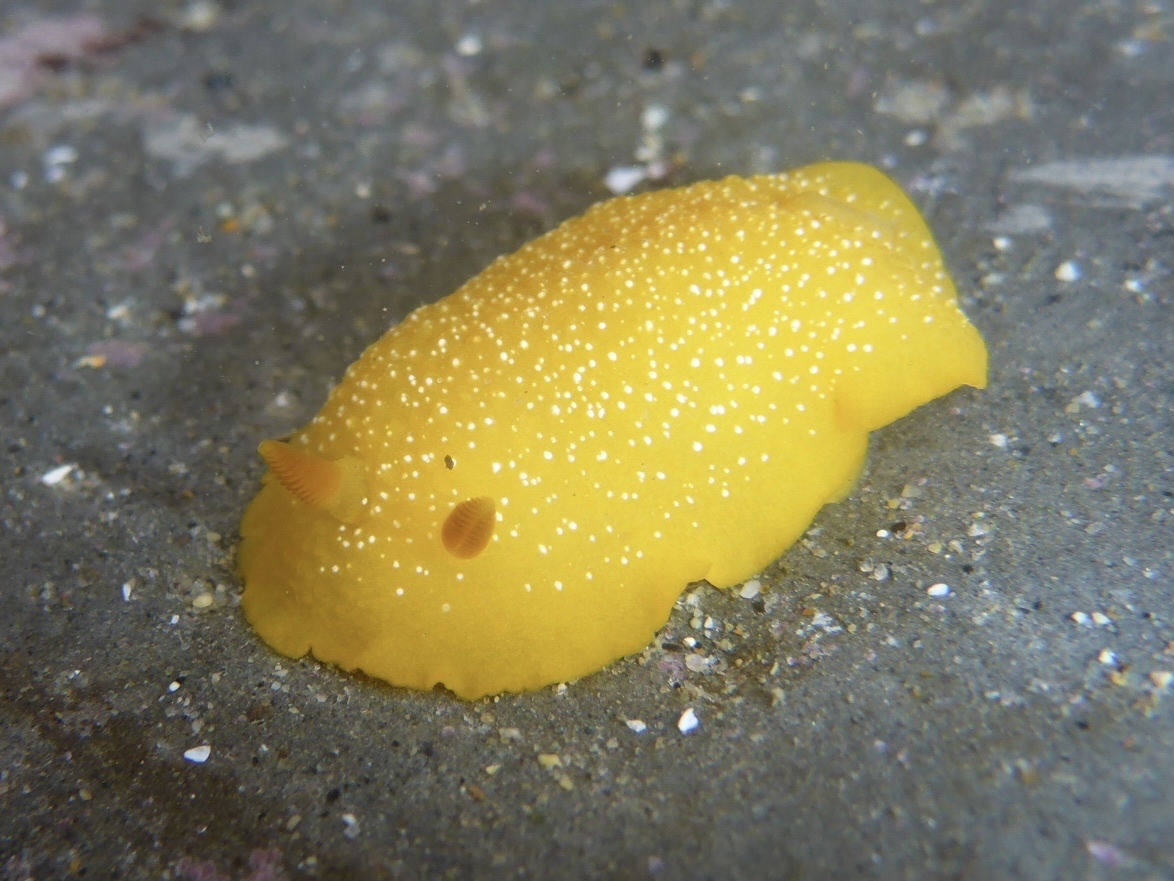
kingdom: Animalia
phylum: Mollusca
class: Gastropoda
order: Nudibranchia
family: Dendrodorididae
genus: Doriopsilla
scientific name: Doriopsilla fulva
